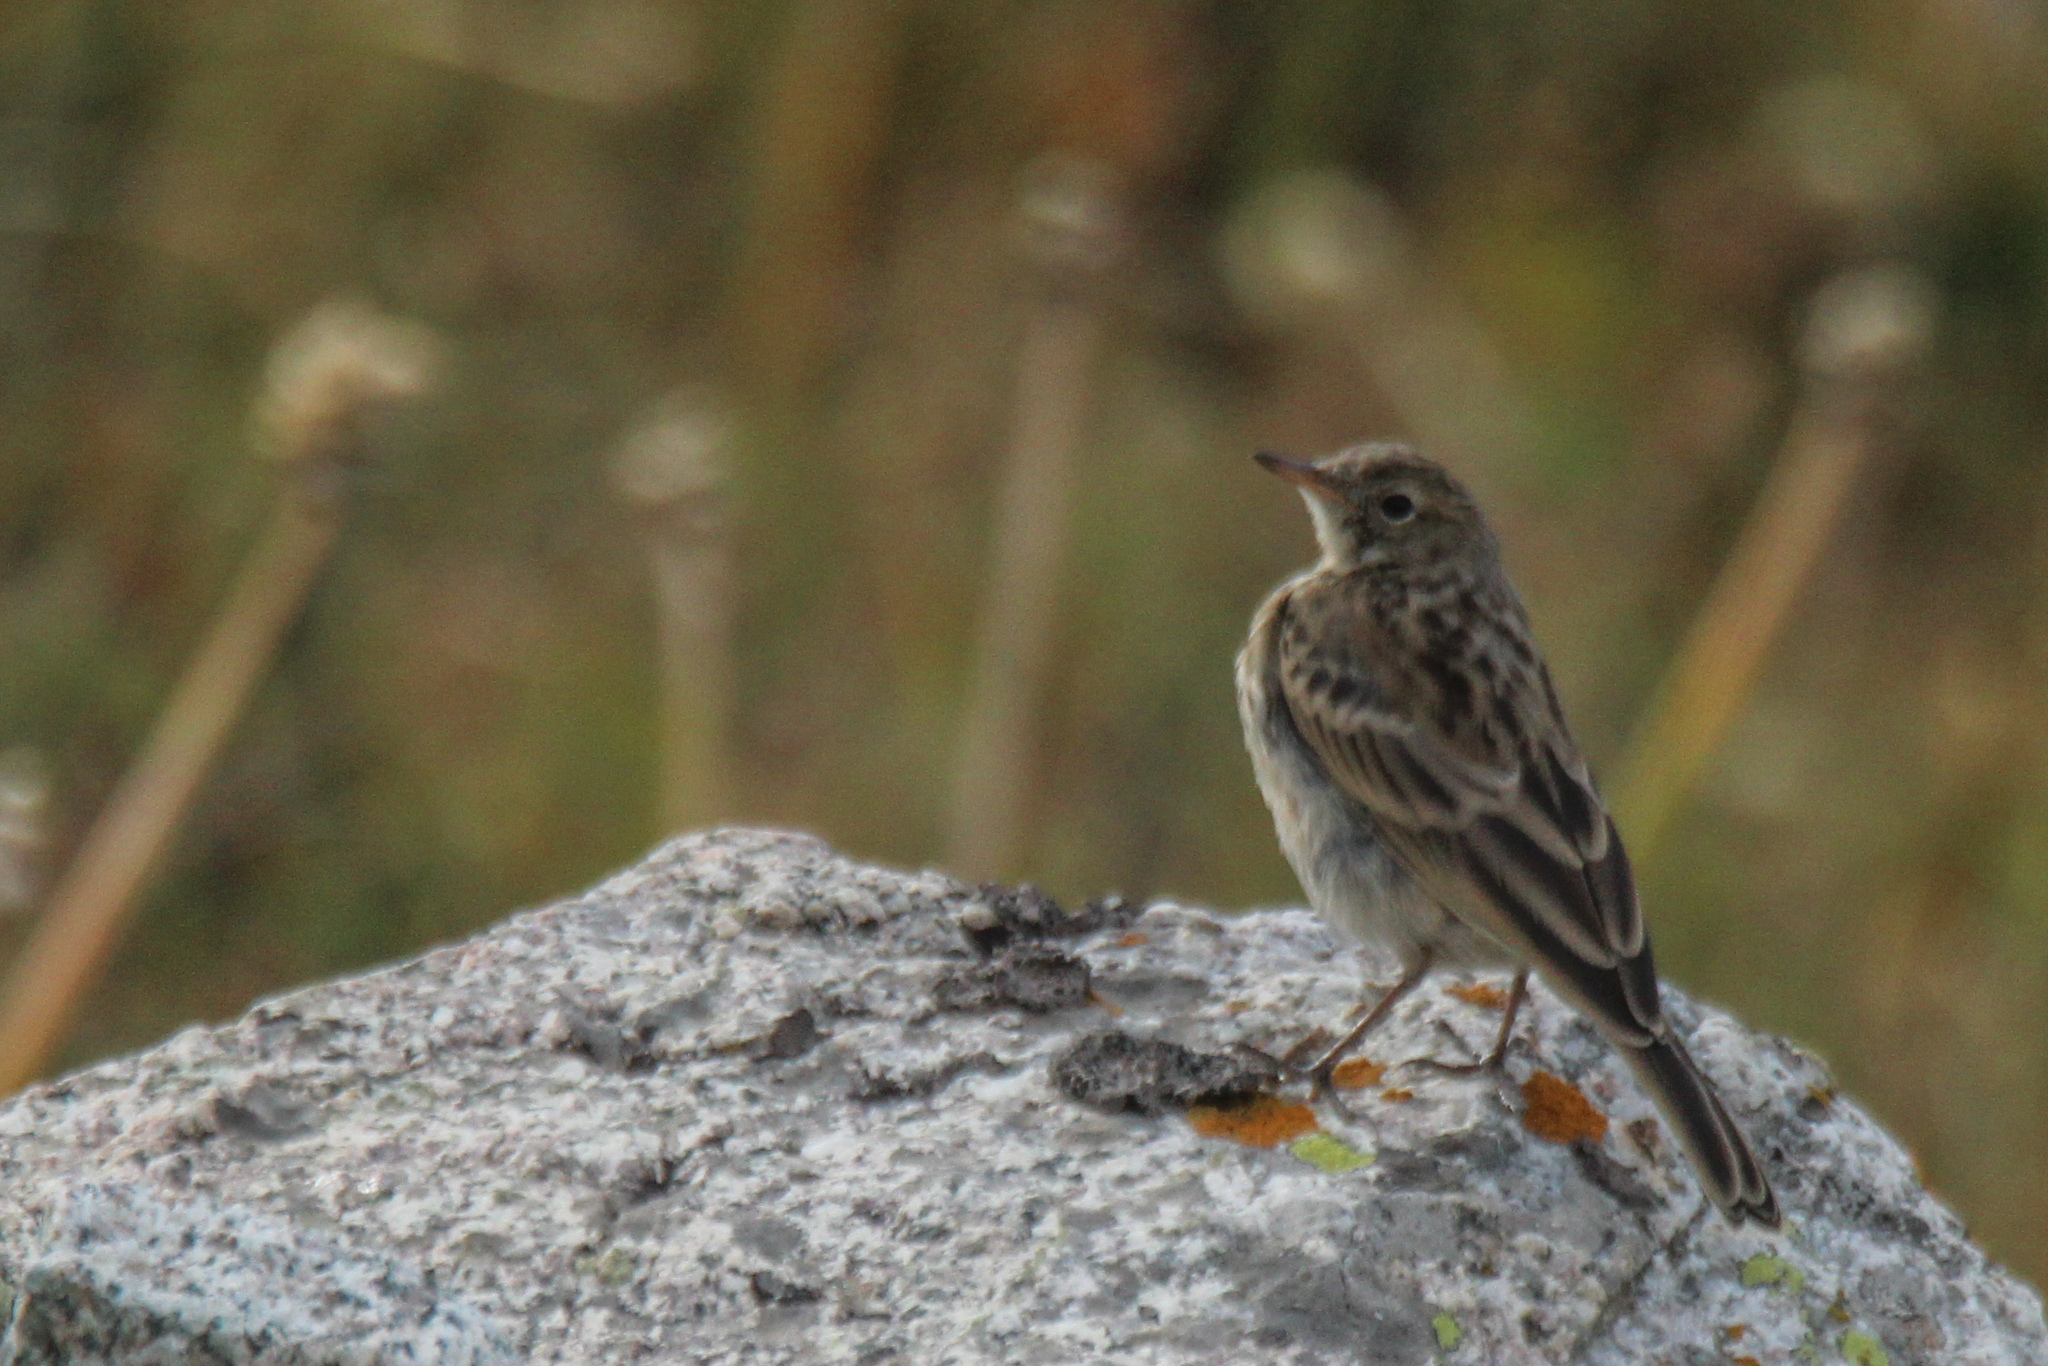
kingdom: Animalia
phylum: Chordata
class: Aves
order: Passeriformes
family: Motacillidae
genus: Anthus
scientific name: Anthus spinoletta
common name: Water pipit
